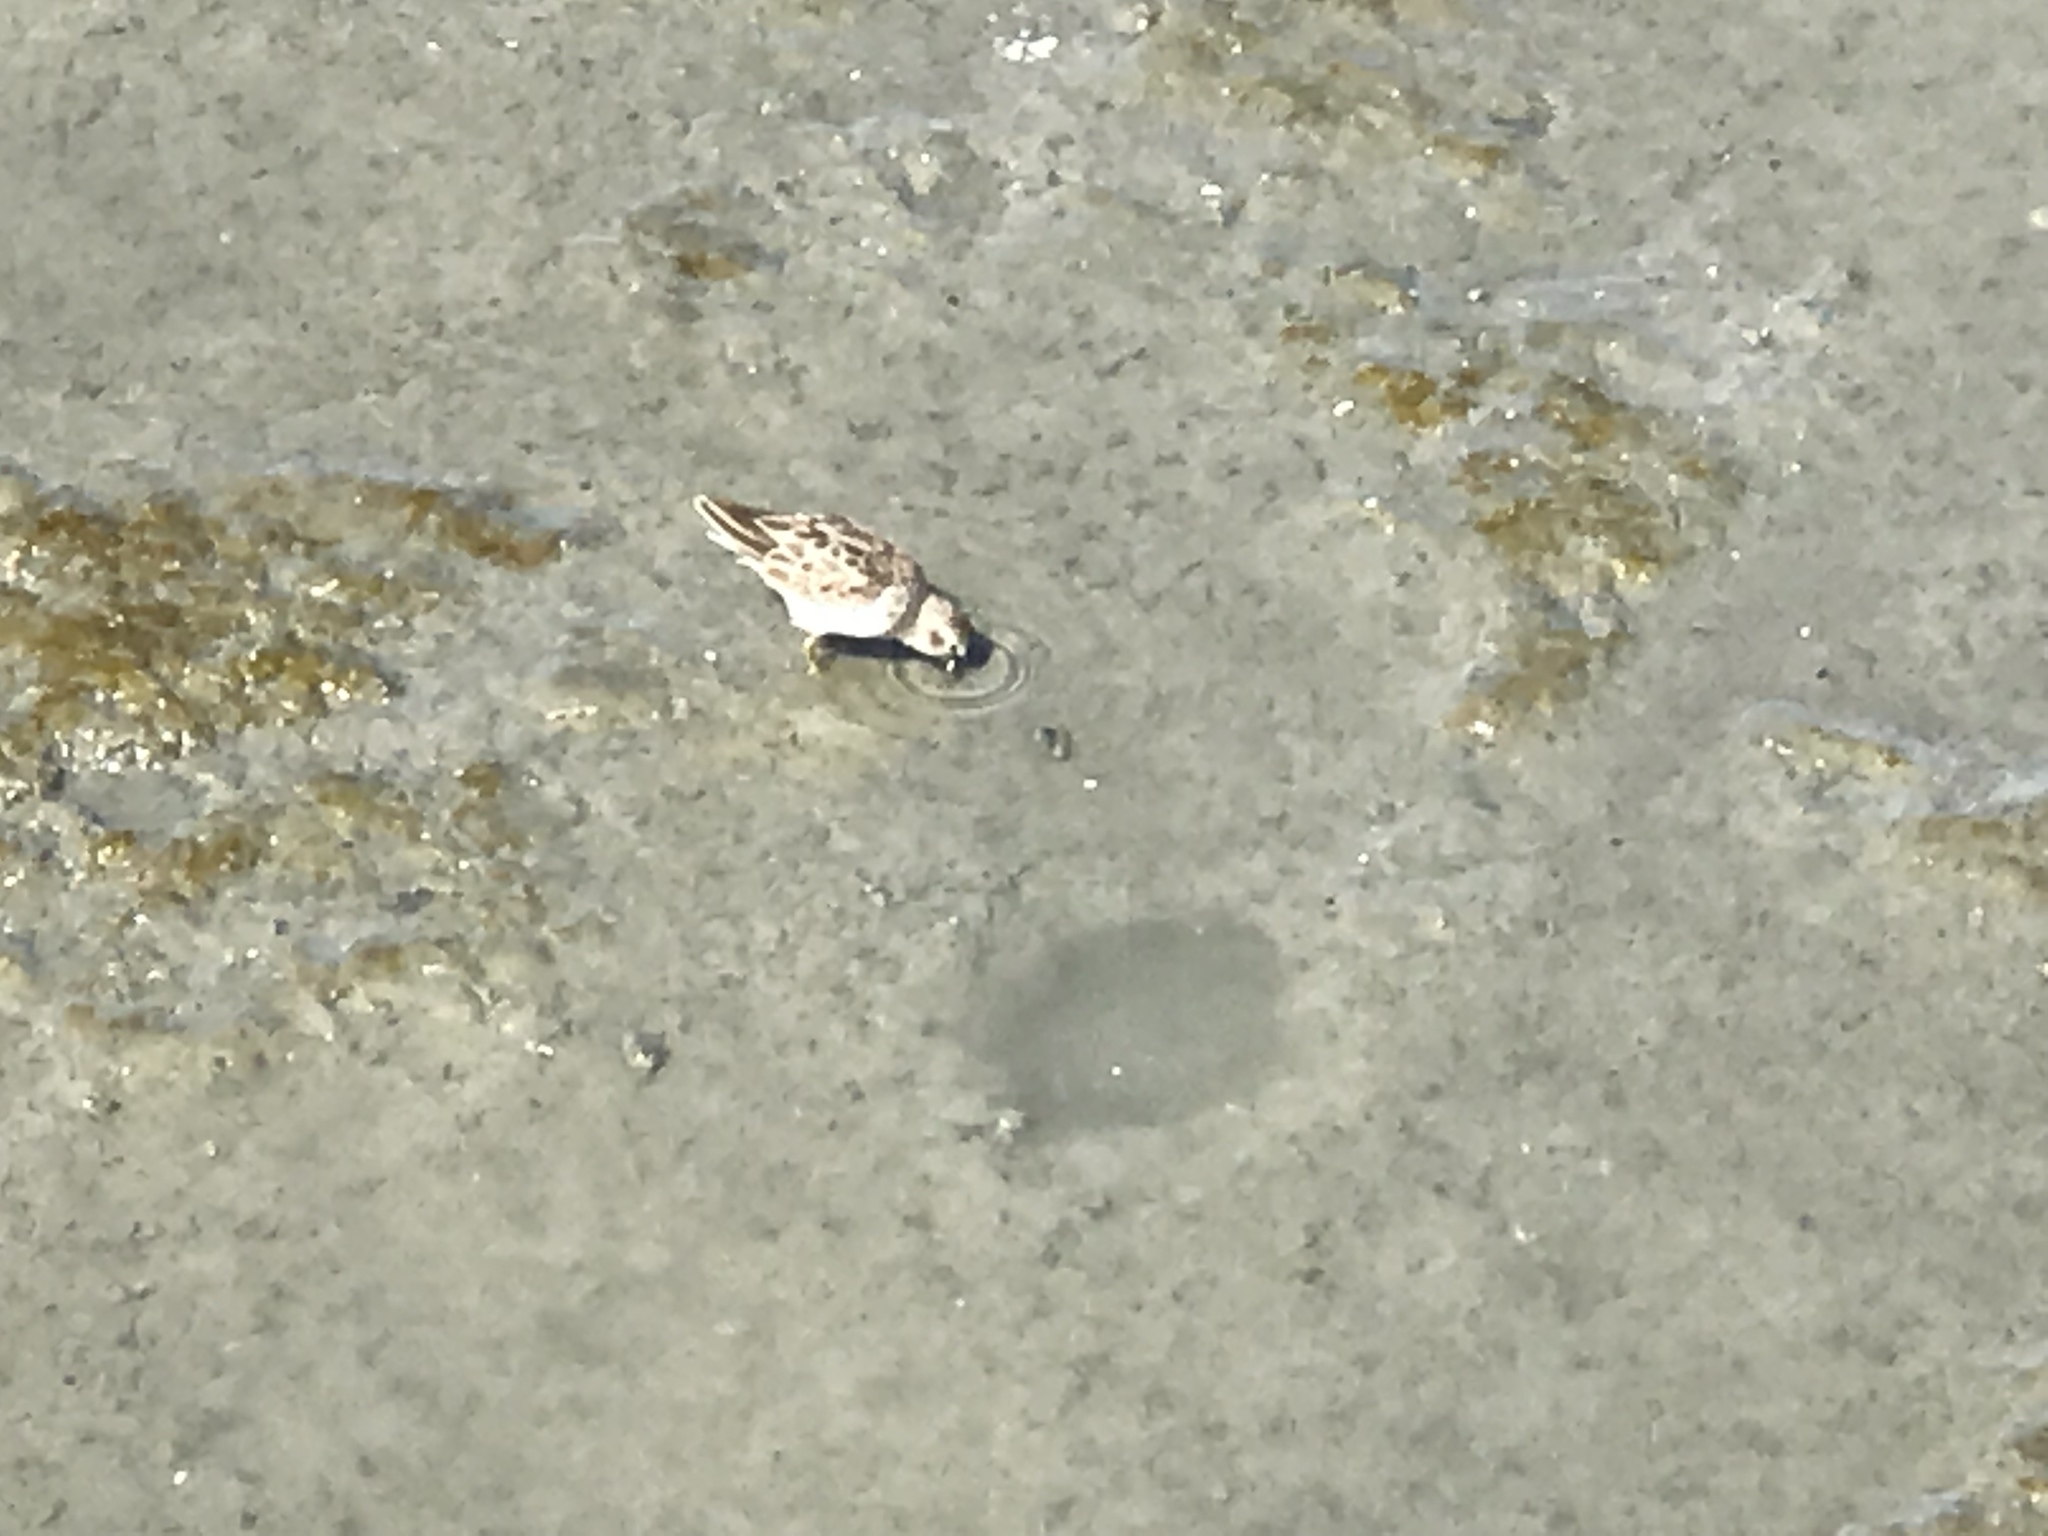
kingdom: Animalia
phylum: Chordata
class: Aves
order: Charadriiformes
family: Scolopacidae
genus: Calidris
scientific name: Calidris
